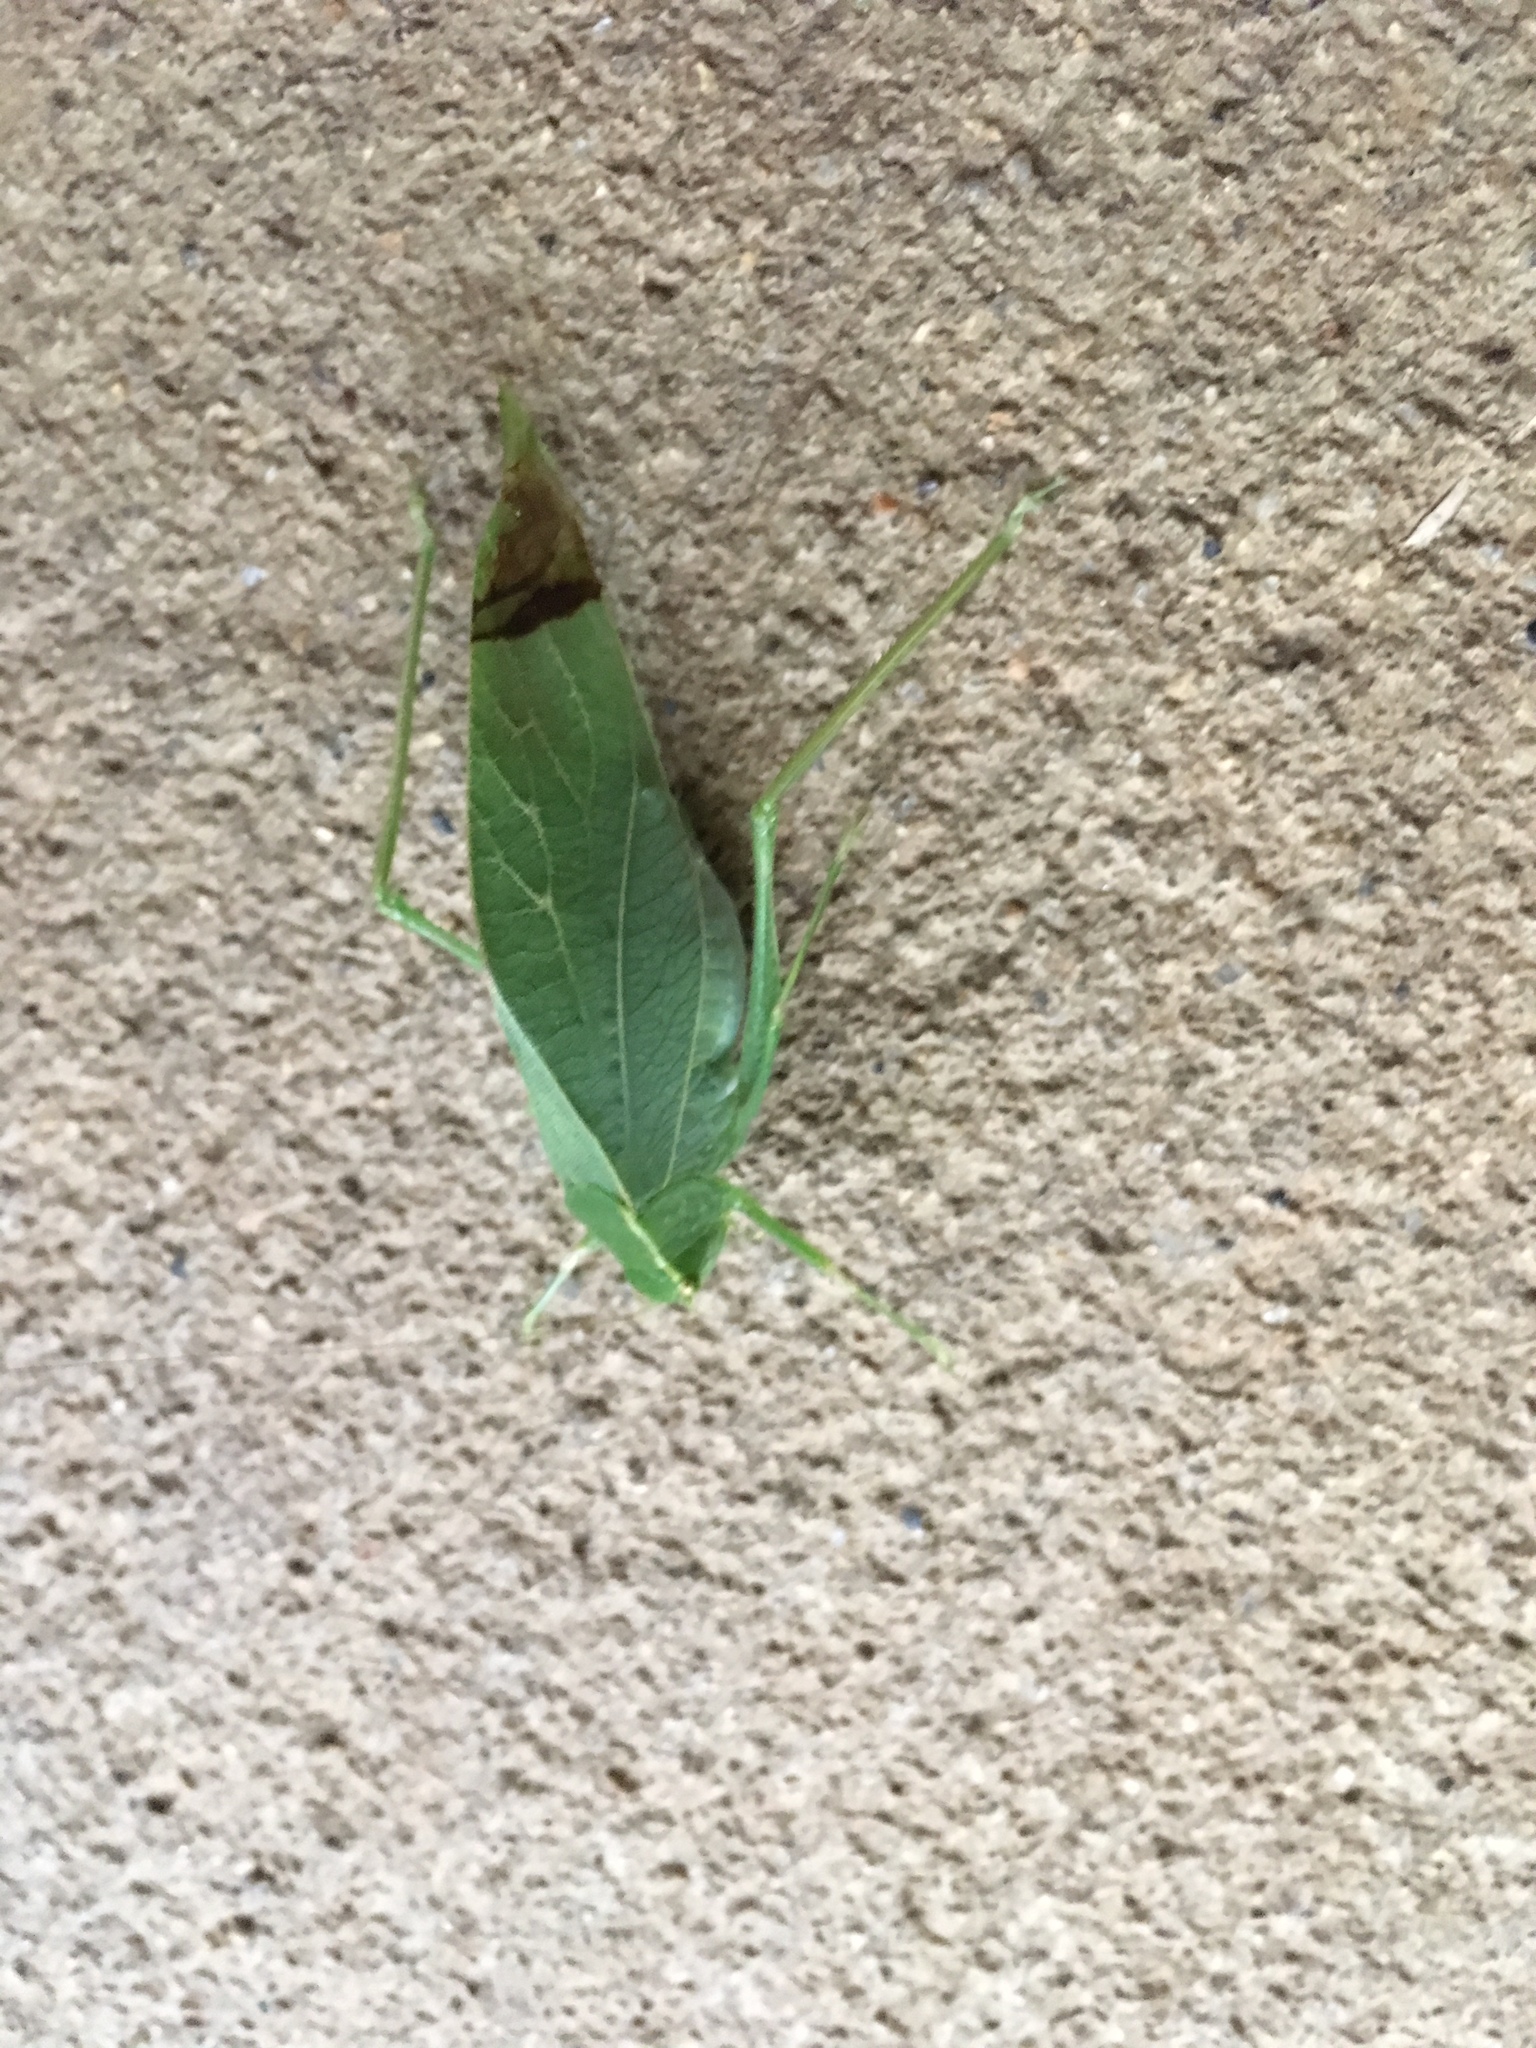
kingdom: Animalia
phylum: Arthropoda
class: Insecta
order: Orthoptera
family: Tettigoniidae
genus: Microcentrum
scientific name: Microcentrum retinerve
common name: Angular-winged katydid
